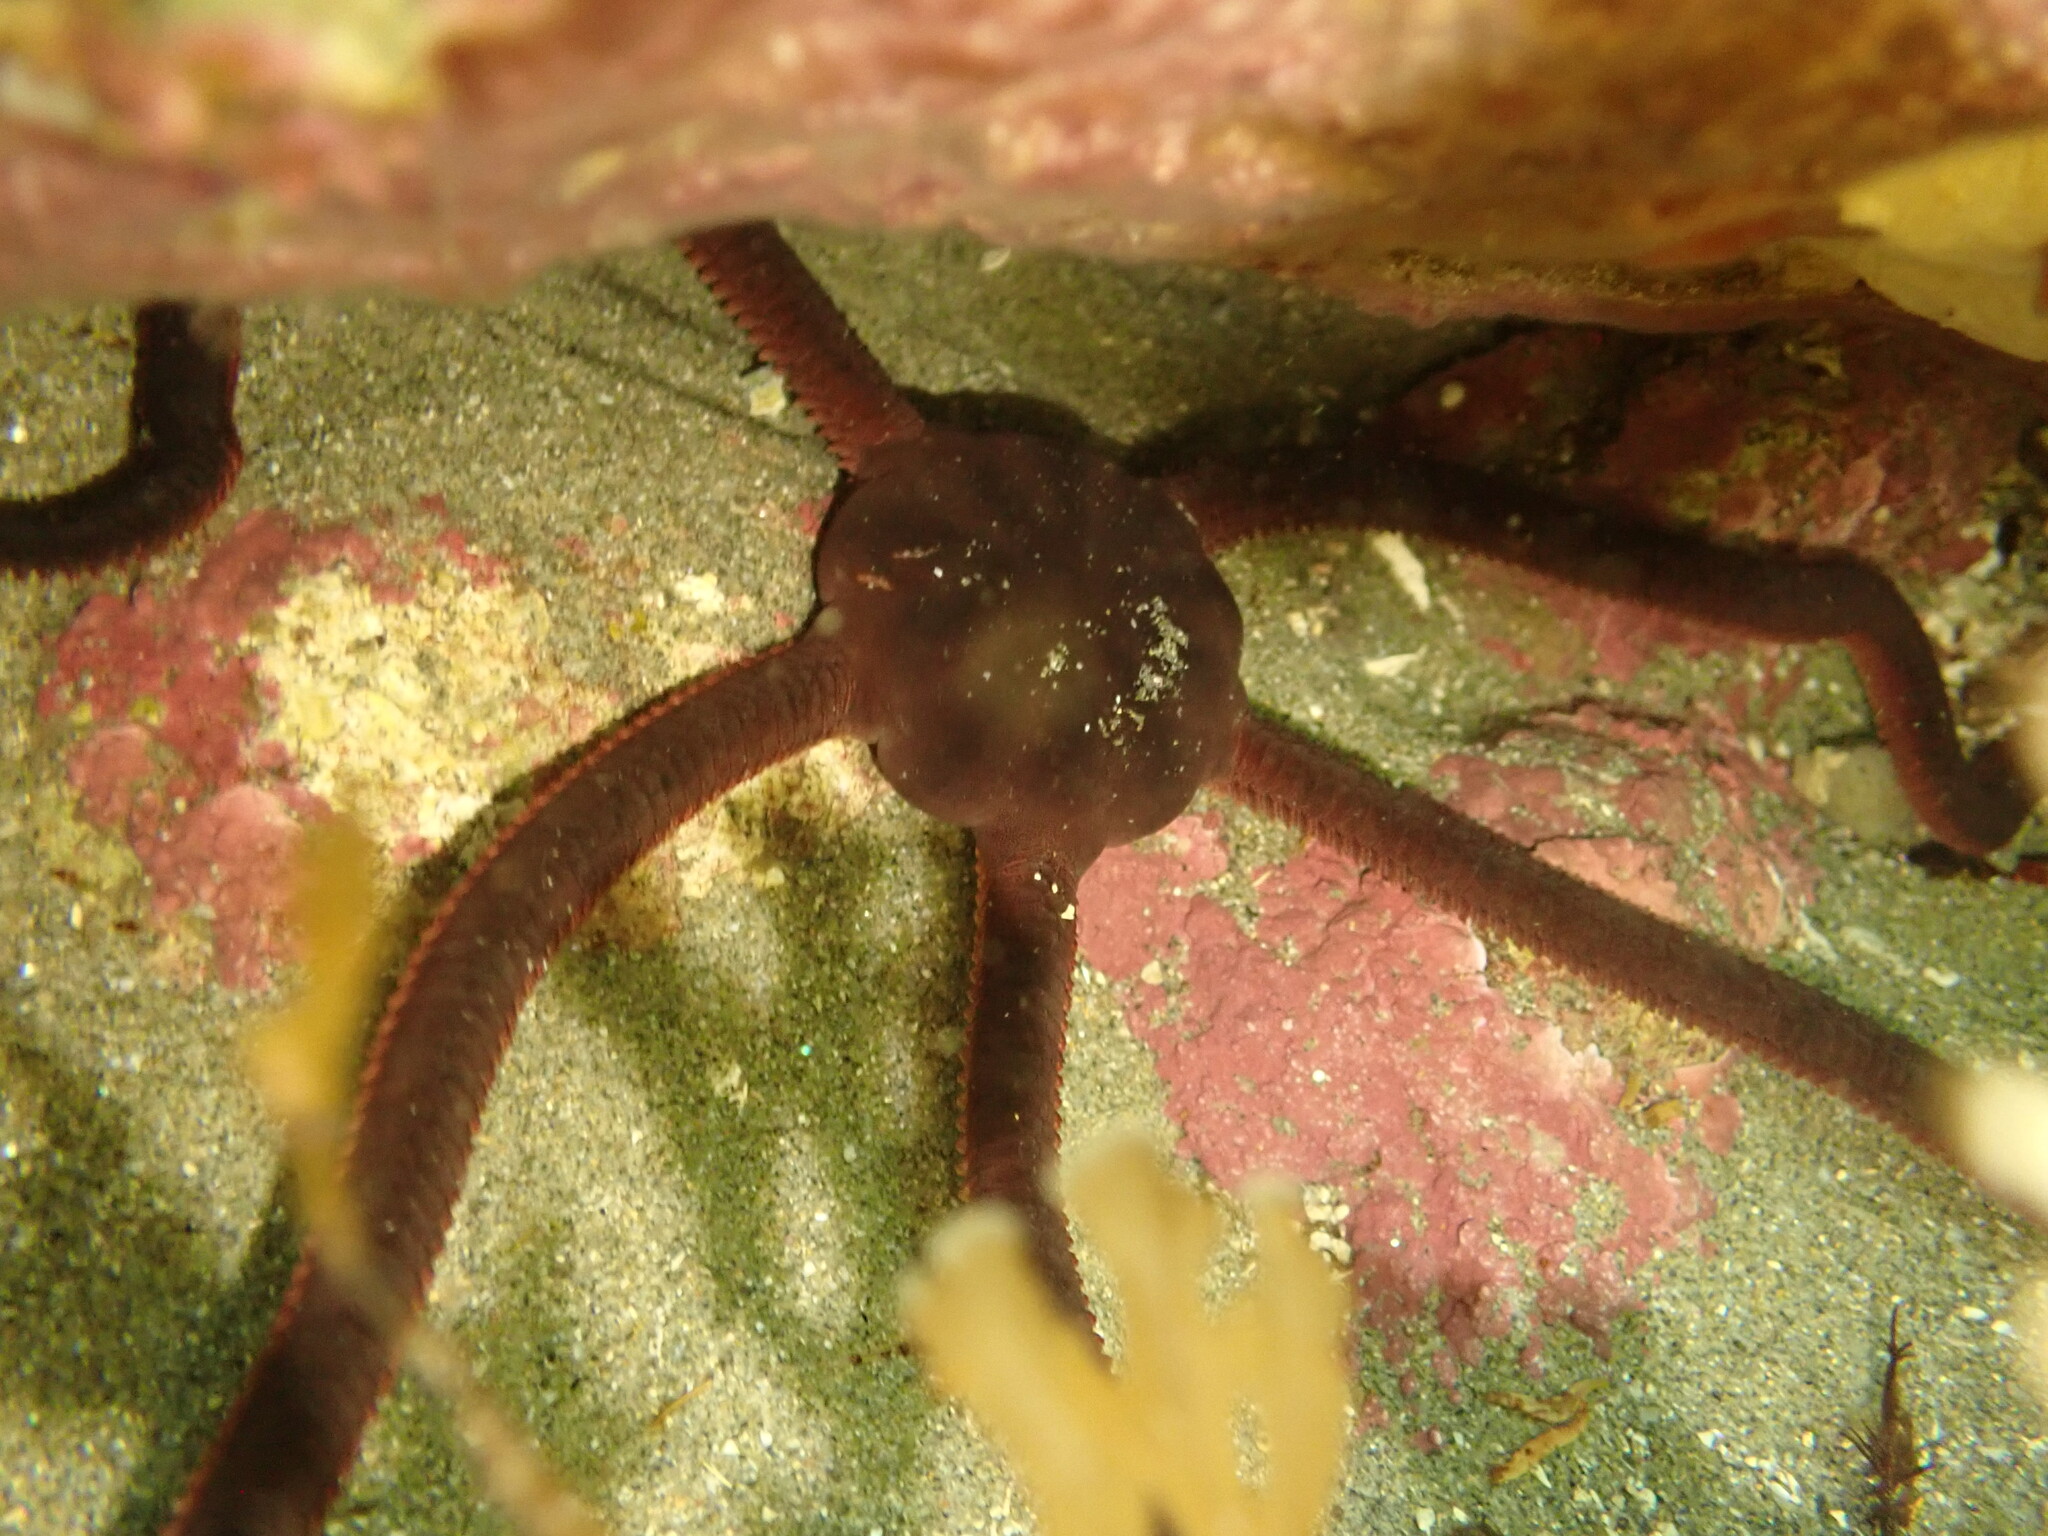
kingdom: Animalia
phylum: Echinodermata
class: Ophiuroidea
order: Ophiacanthida
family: Ophiodermatidae
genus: Ophiopsammus
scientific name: Ophiopsammus maculata
